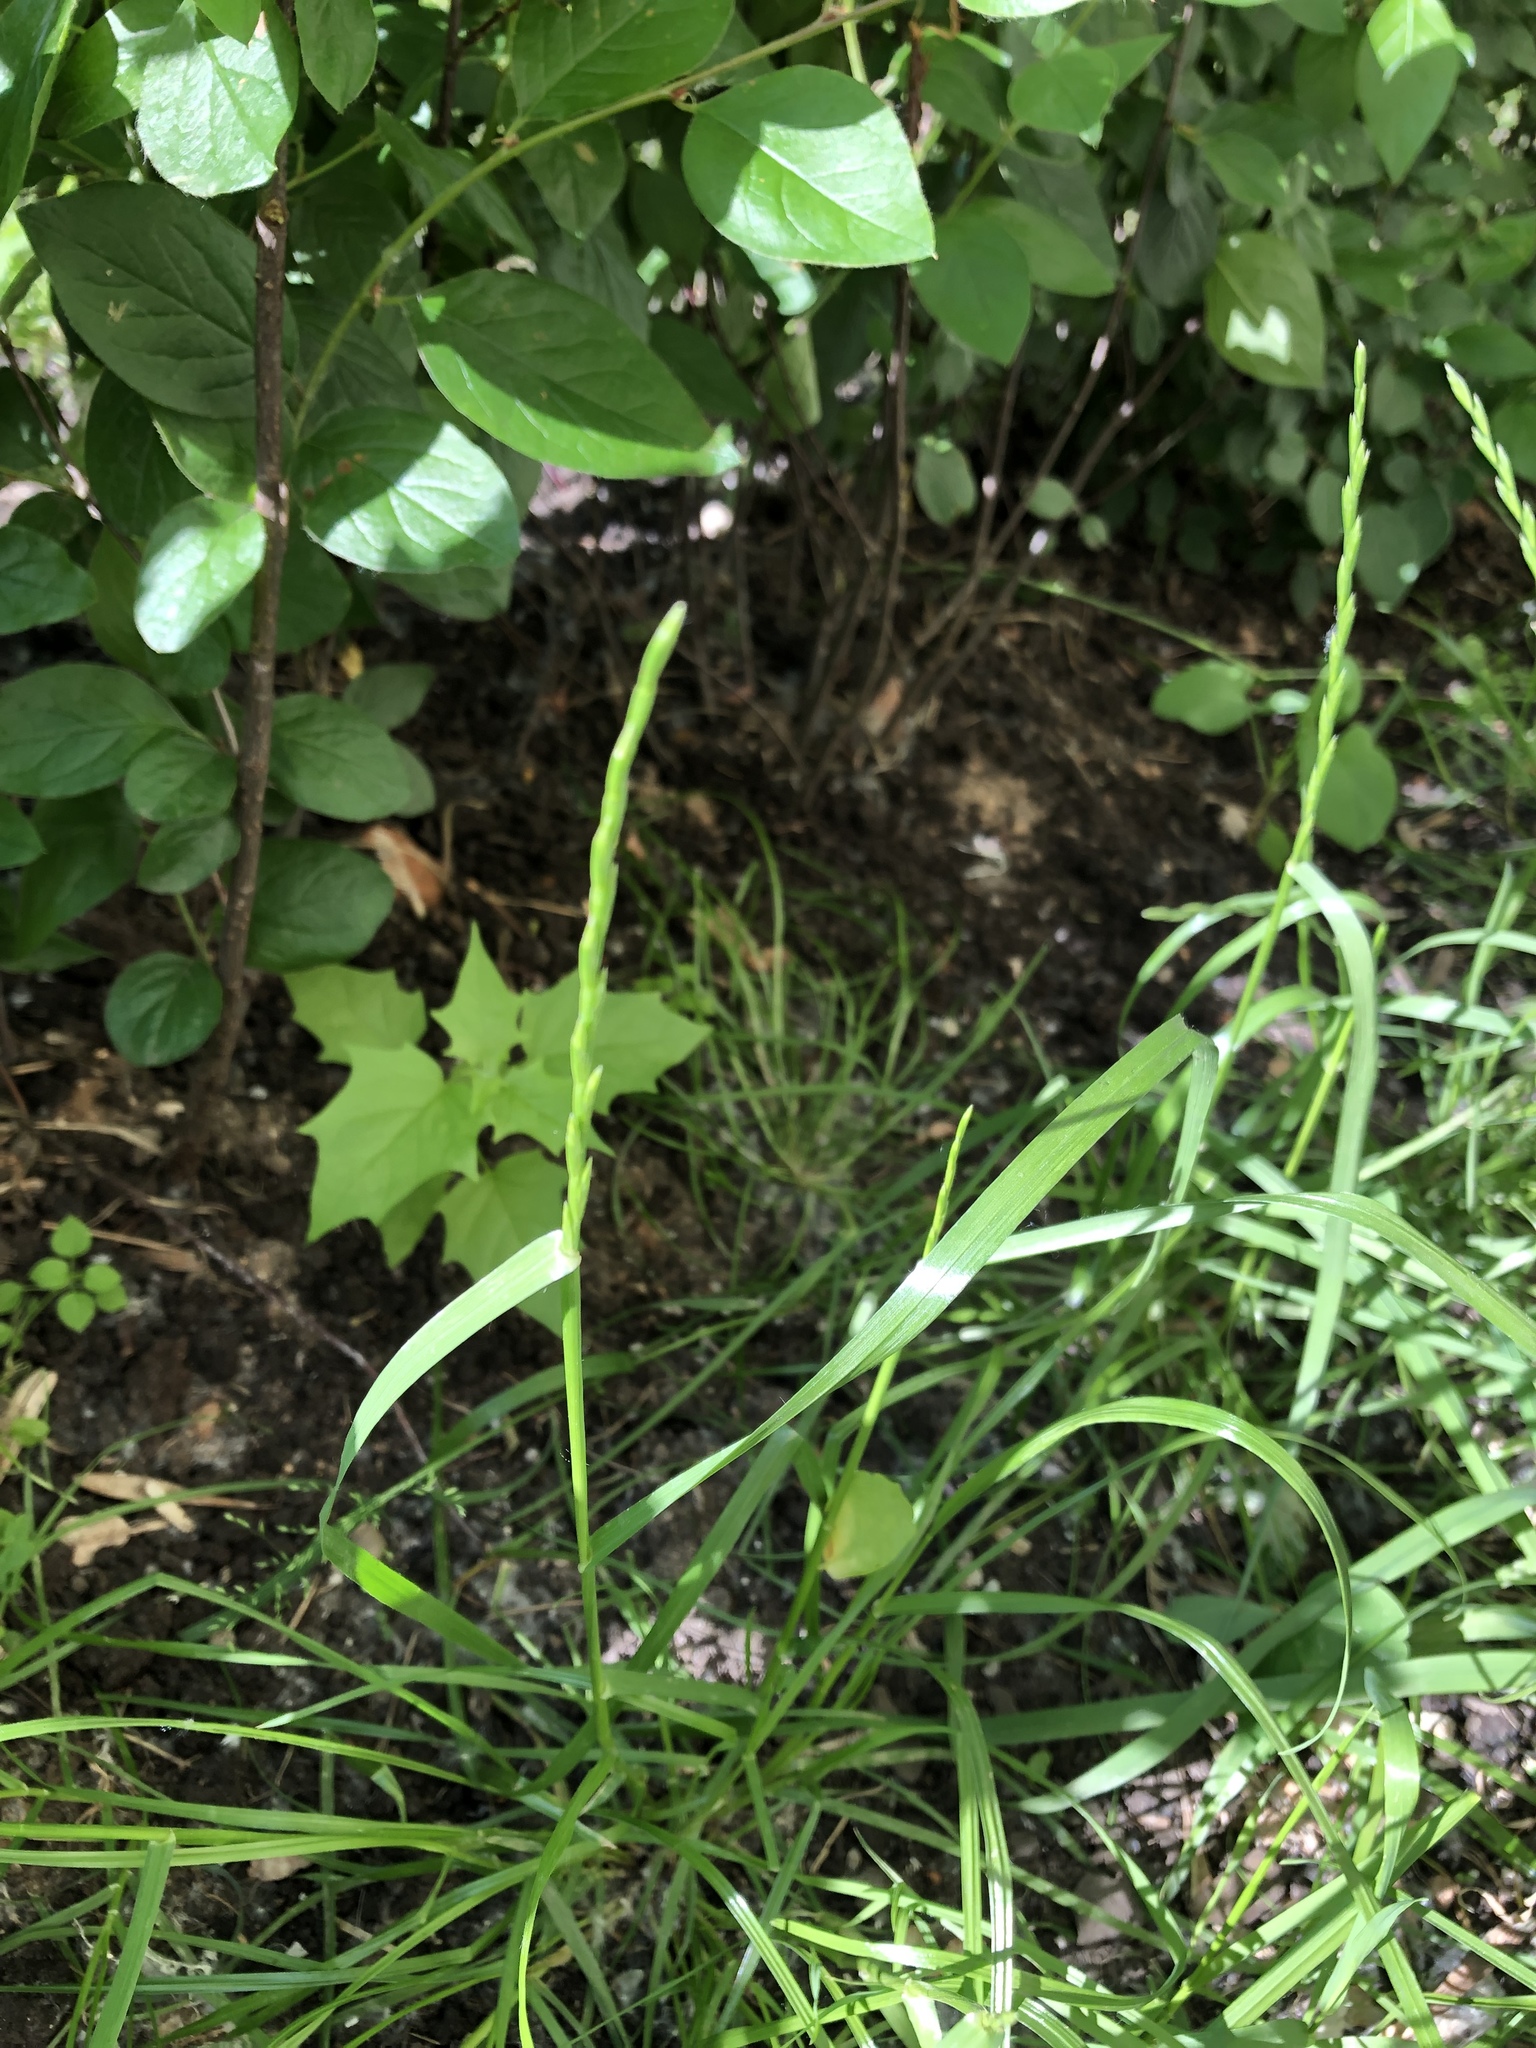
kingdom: Plantae
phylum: Tracheophyta
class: Liliopsida
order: Poales
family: Poaceae
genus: Lolium
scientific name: Lolium perenne
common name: Perennial ryegrass
